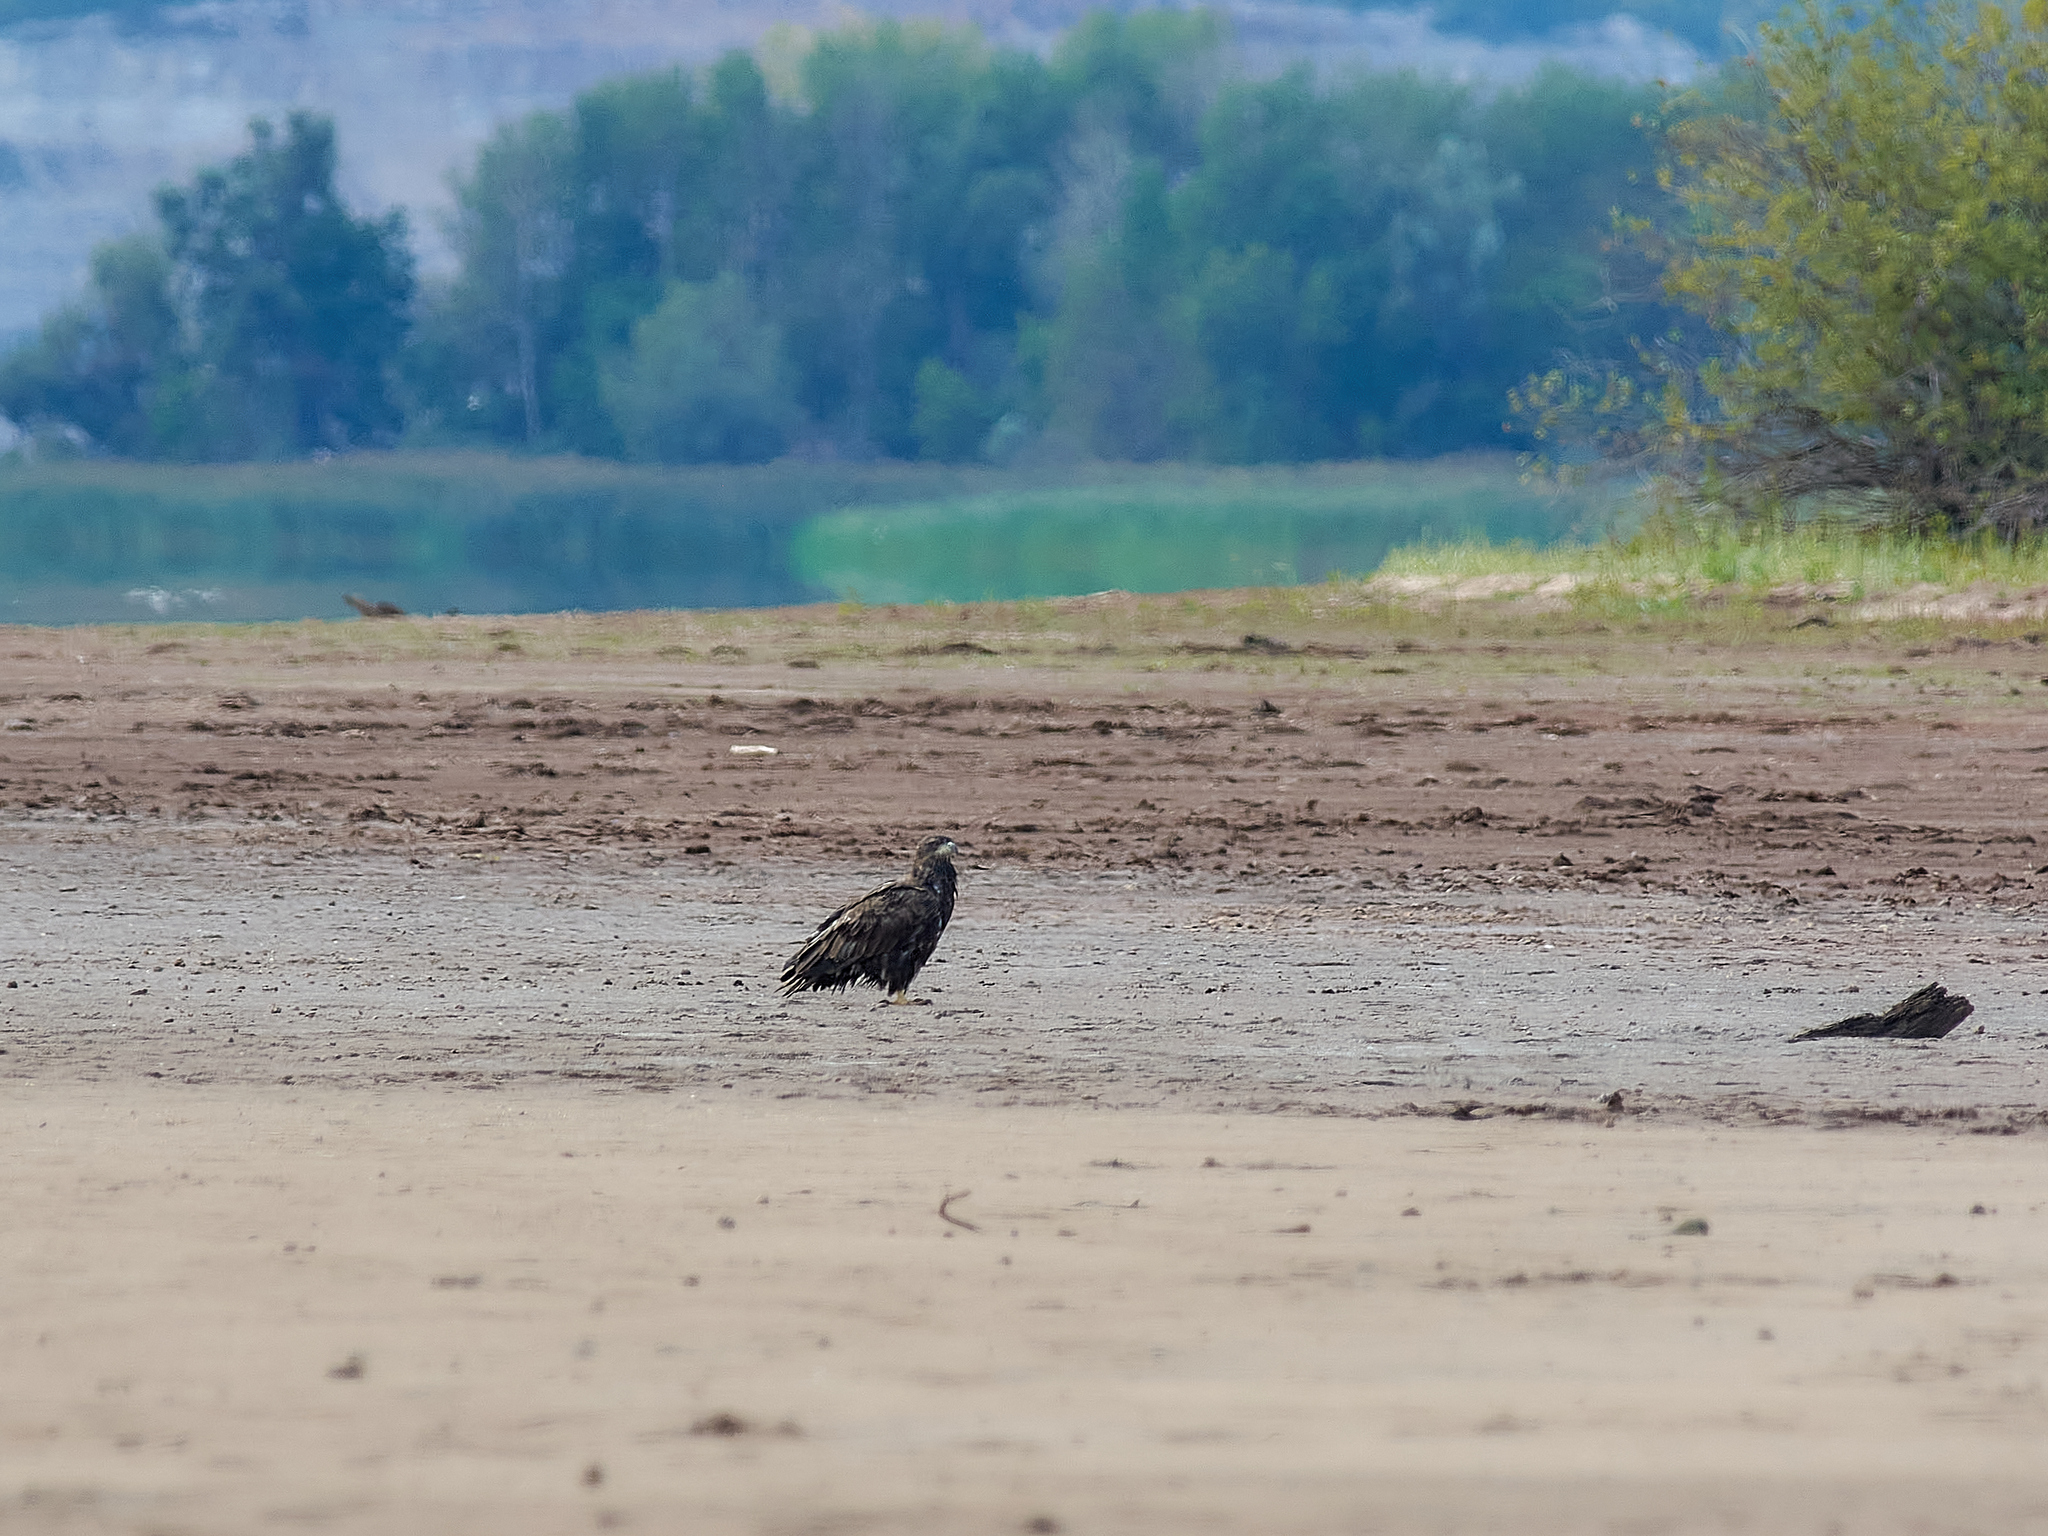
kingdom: Animalia
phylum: Chordata
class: Aves
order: Accipitriformes
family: Accipitridae
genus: Haliaeetus
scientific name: Haliaeetus albicilla
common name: White-tailed eagle
